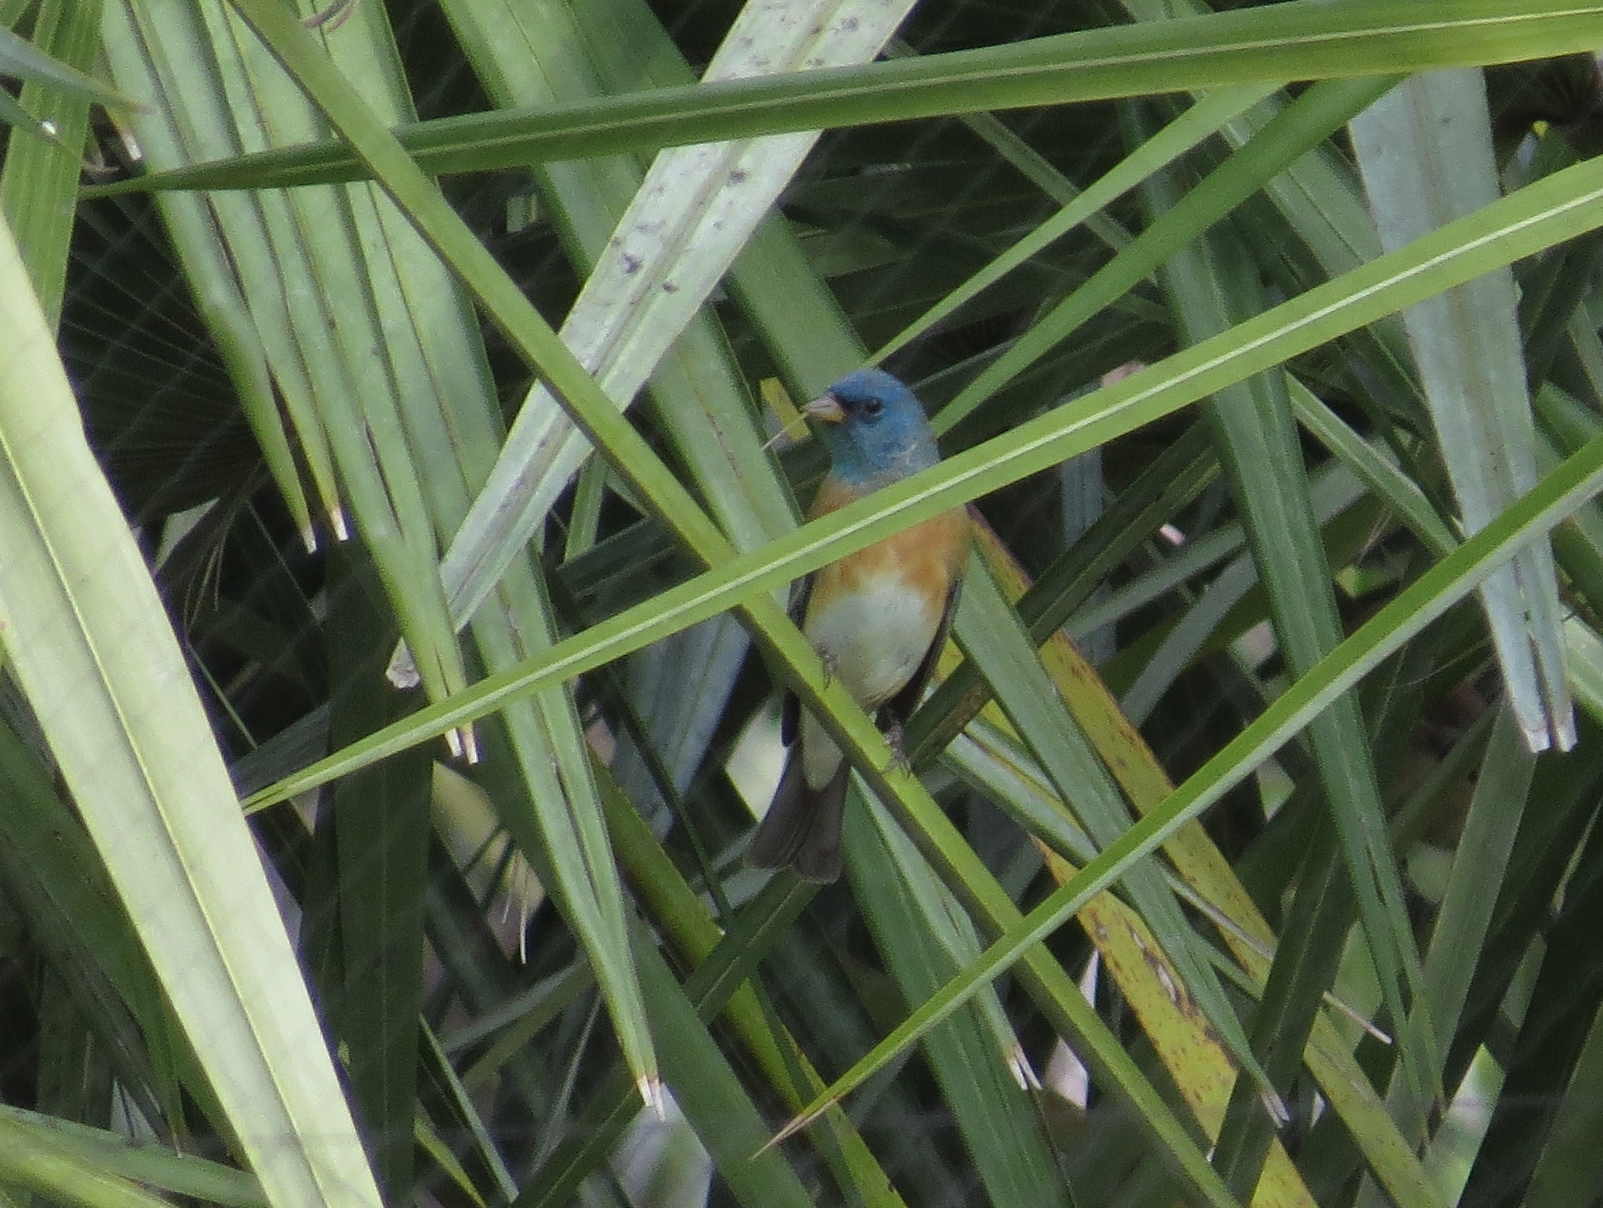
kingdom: Animalia
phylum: Chordata
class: Aves
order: Passeriformes
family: Cardinalidae
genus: Passerina
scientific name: Passerina amoena
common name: Lazuli bunting
